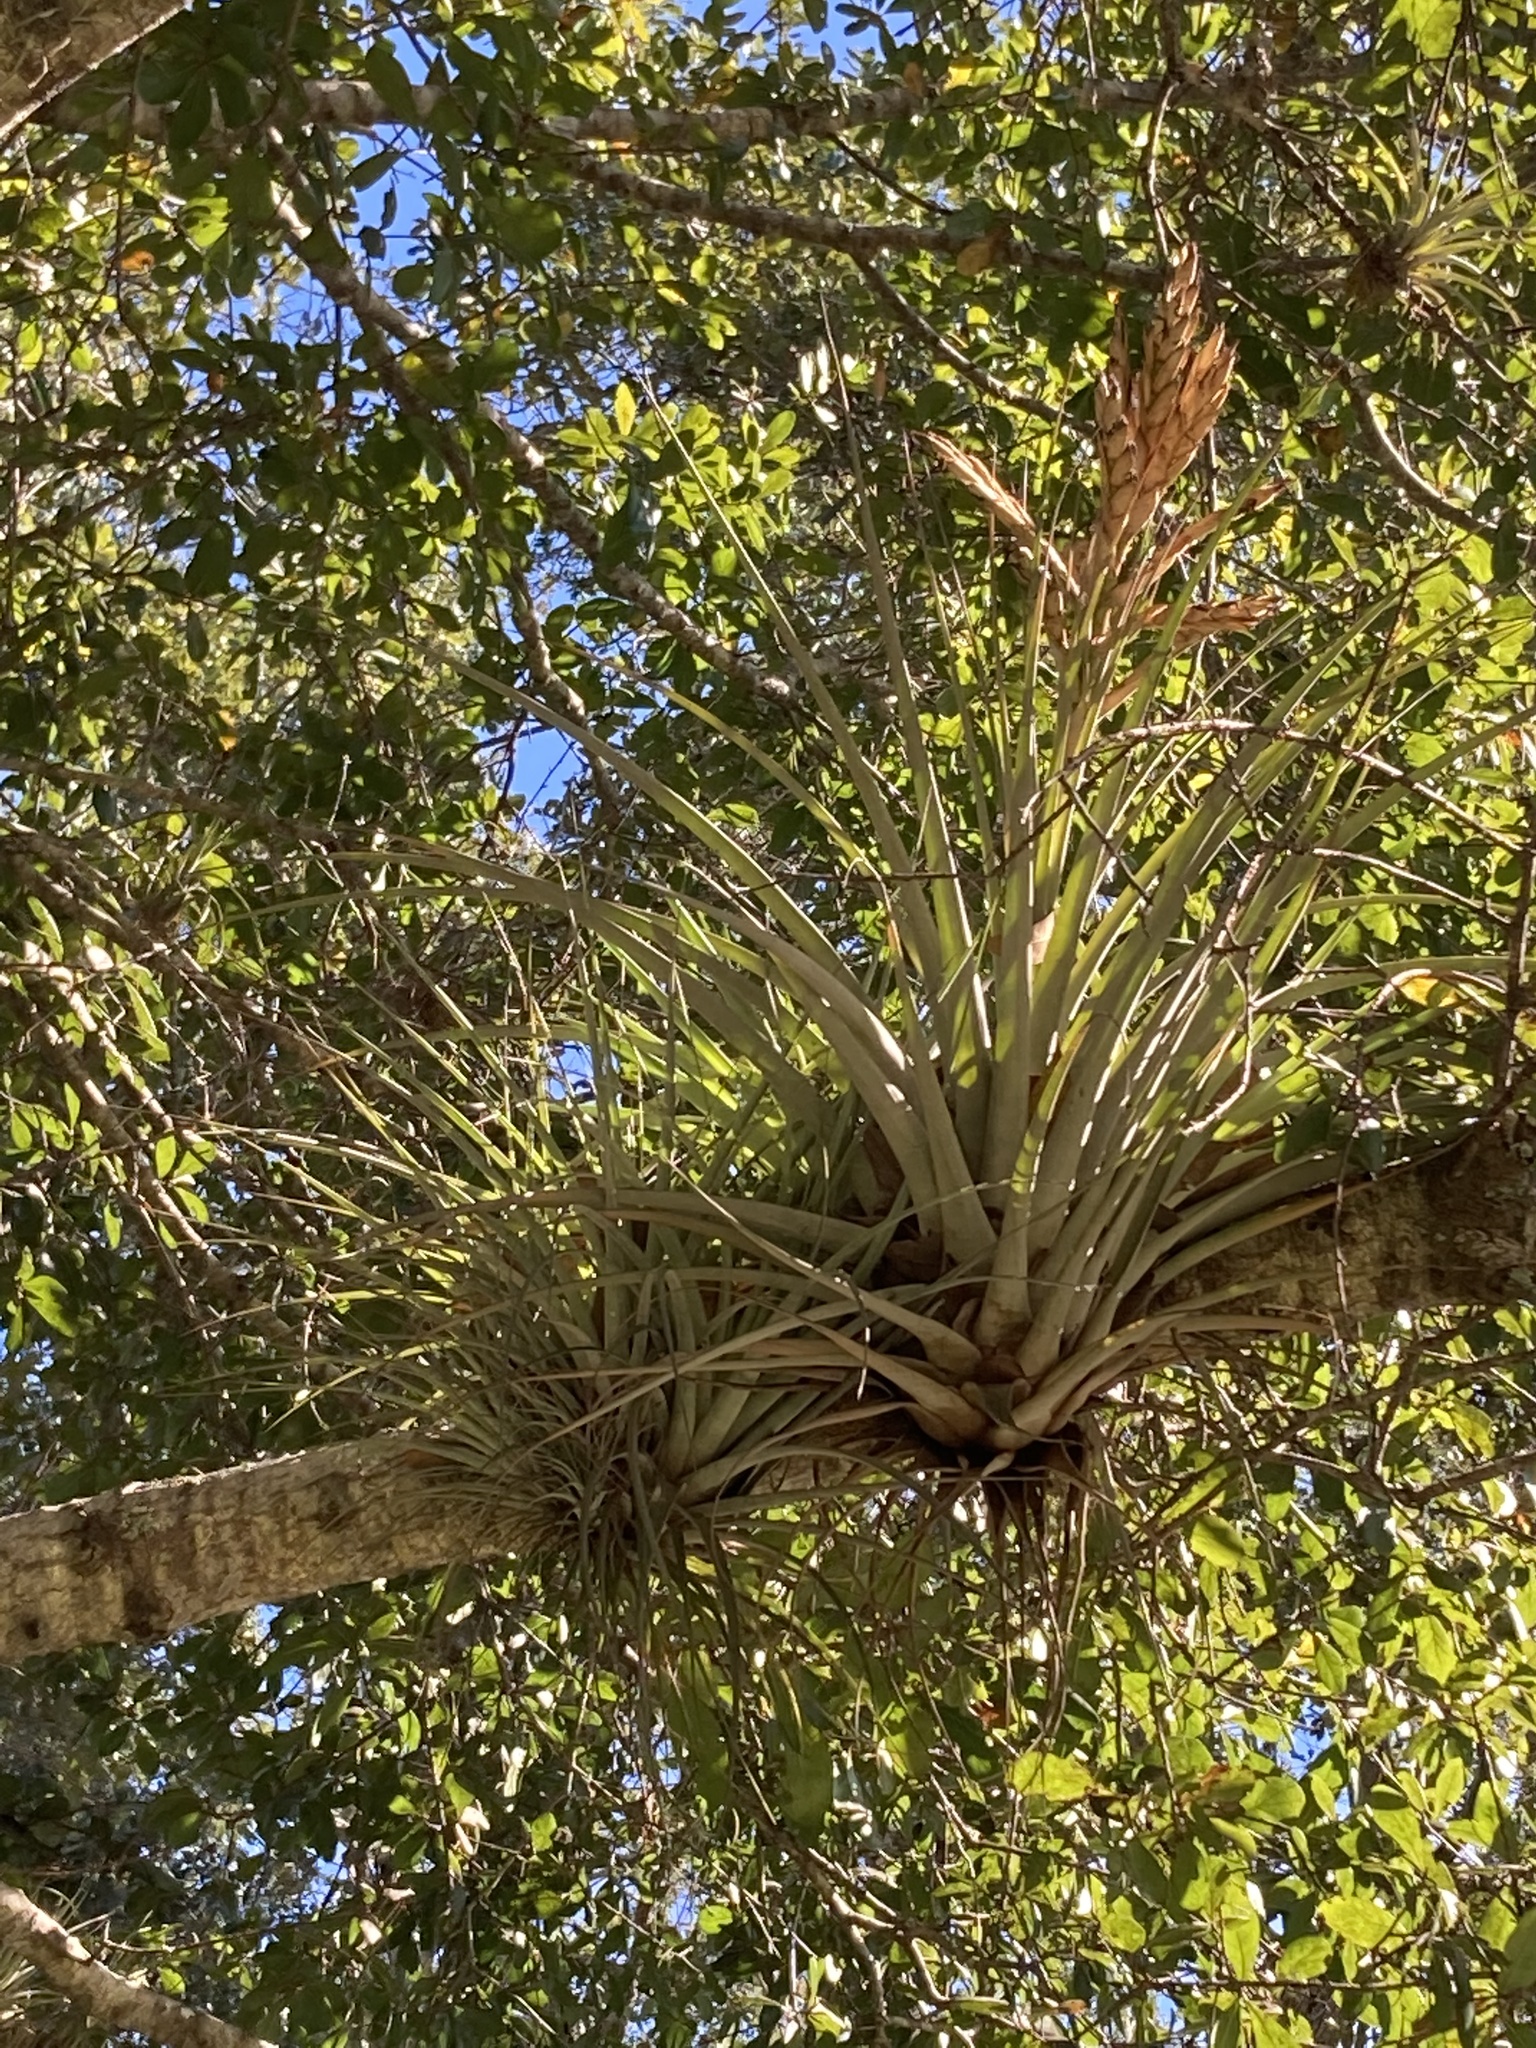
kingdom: Plantae
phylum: Tracheophyta
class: Liliopsida
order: Poales
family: Bromeliaceae
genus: Tillandsia
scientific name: Tillandsia fasciculata
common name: Giant airplant
